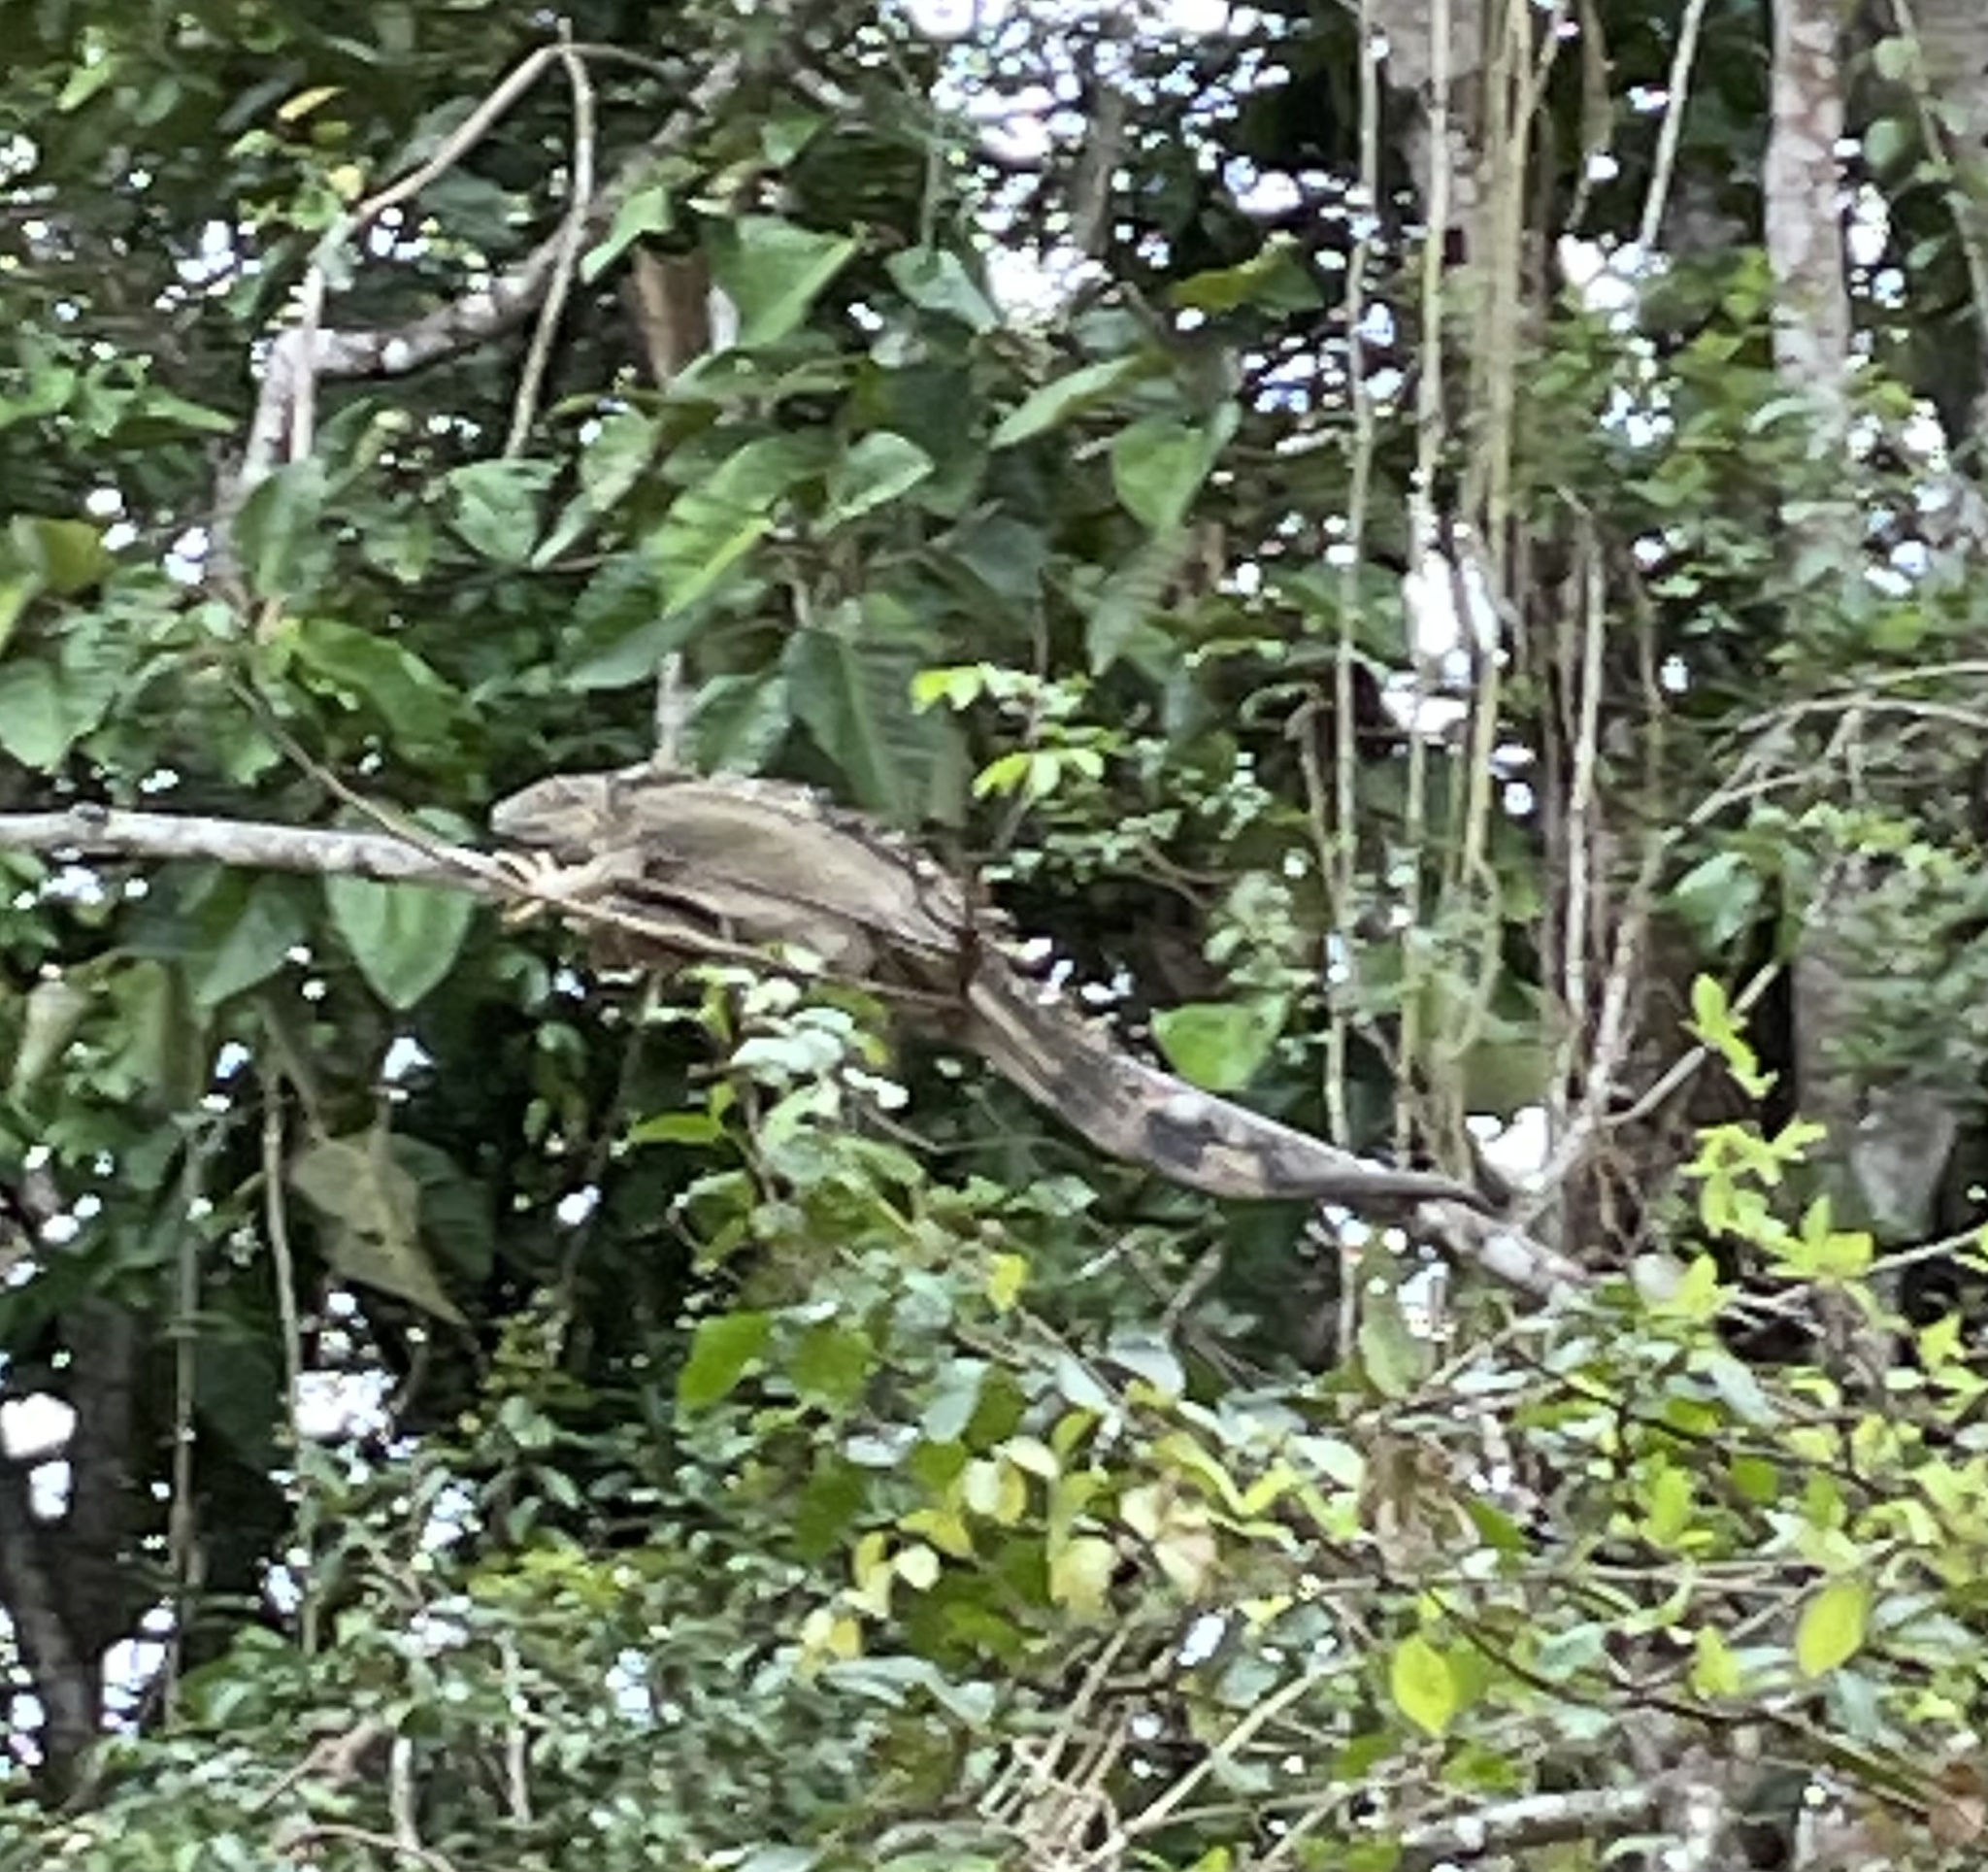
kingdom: Animalia
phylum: Chordata
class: Squamata
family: Iguanidae
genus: Iguana
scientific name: Iguana iguana
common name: Green iguana
